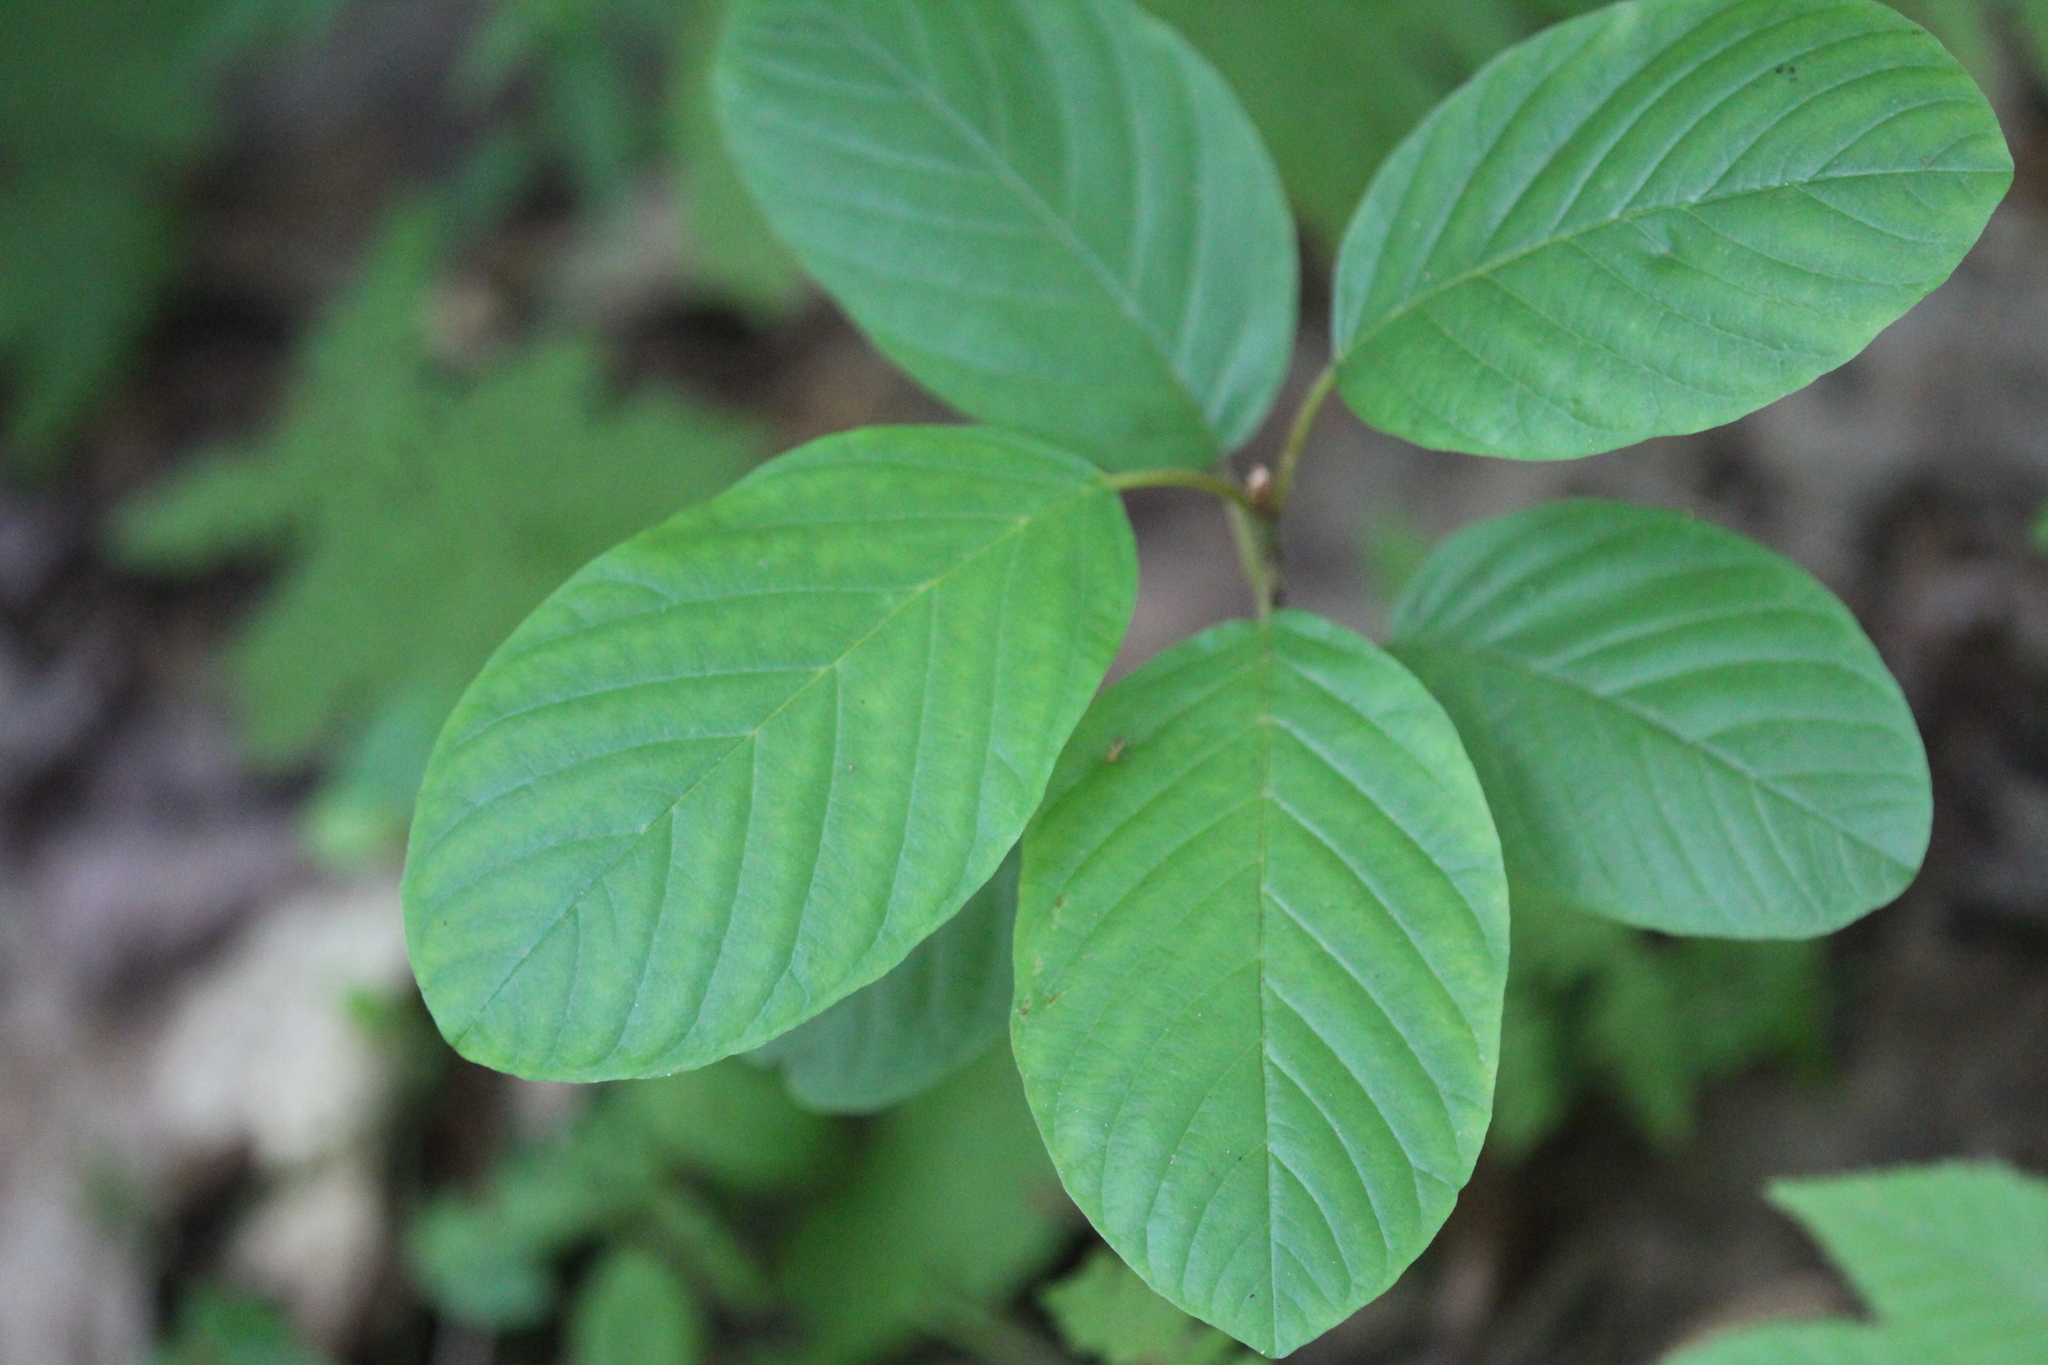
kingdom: Plantae
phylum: Tracheophyta
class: Magnoliopsida
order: Rosales
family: Rhamnaceae
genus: Frangula
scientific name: Frangula alnus
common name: Alder buckthorn
